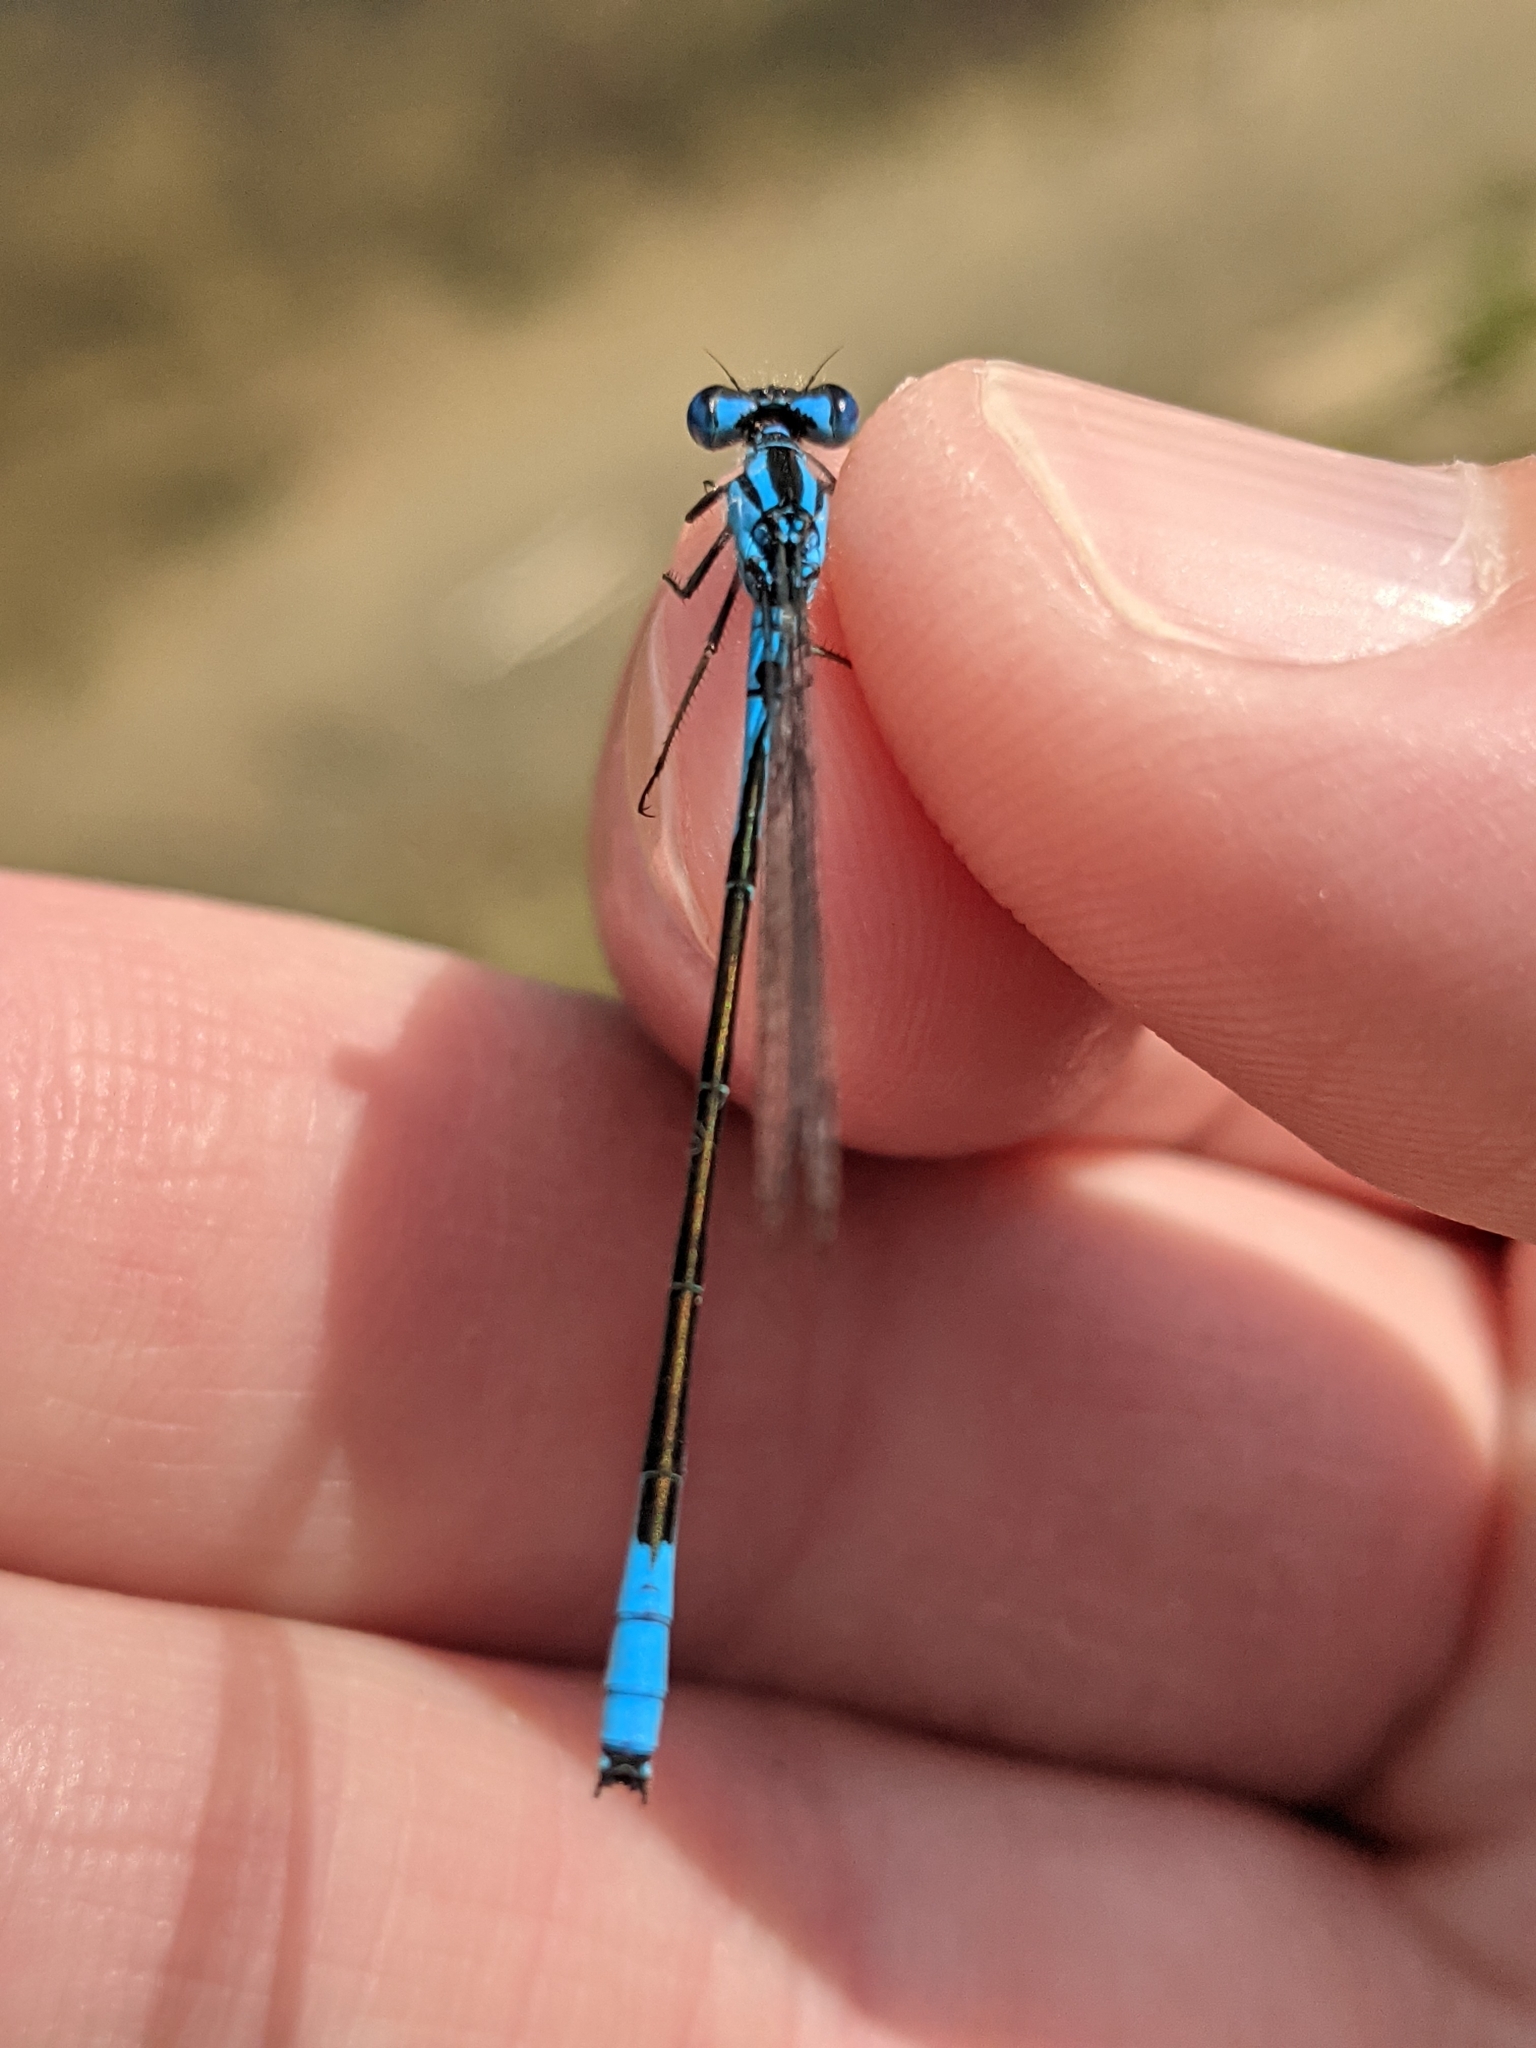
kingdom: Animalia
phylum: Arthropoda
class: Insecta
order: Odonata
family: Coenagrionidae
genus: Enallagma
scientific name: Enallagma aspersum
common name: Azure bluet
